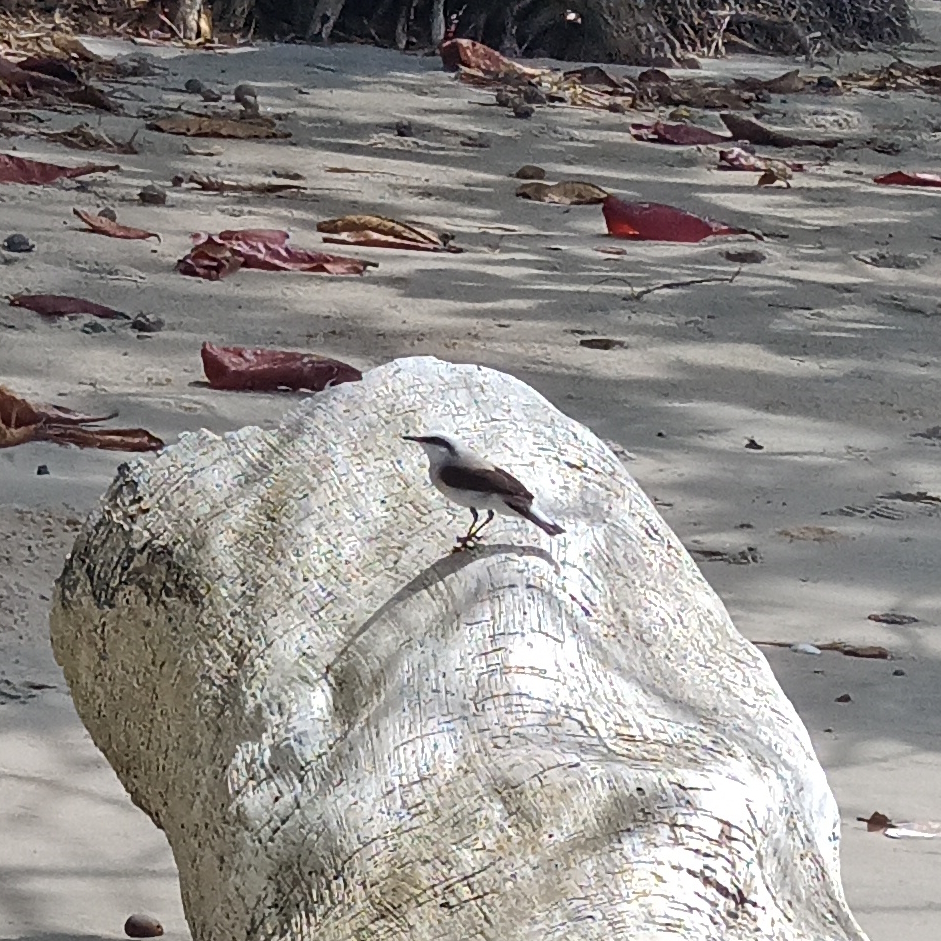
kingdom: Animalia
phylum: Chordata
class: Aves
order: Passeriformes
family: Tyrannidae
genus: Fluvicola
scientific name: Fluvicola nengeta
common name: Masked water tyrant
